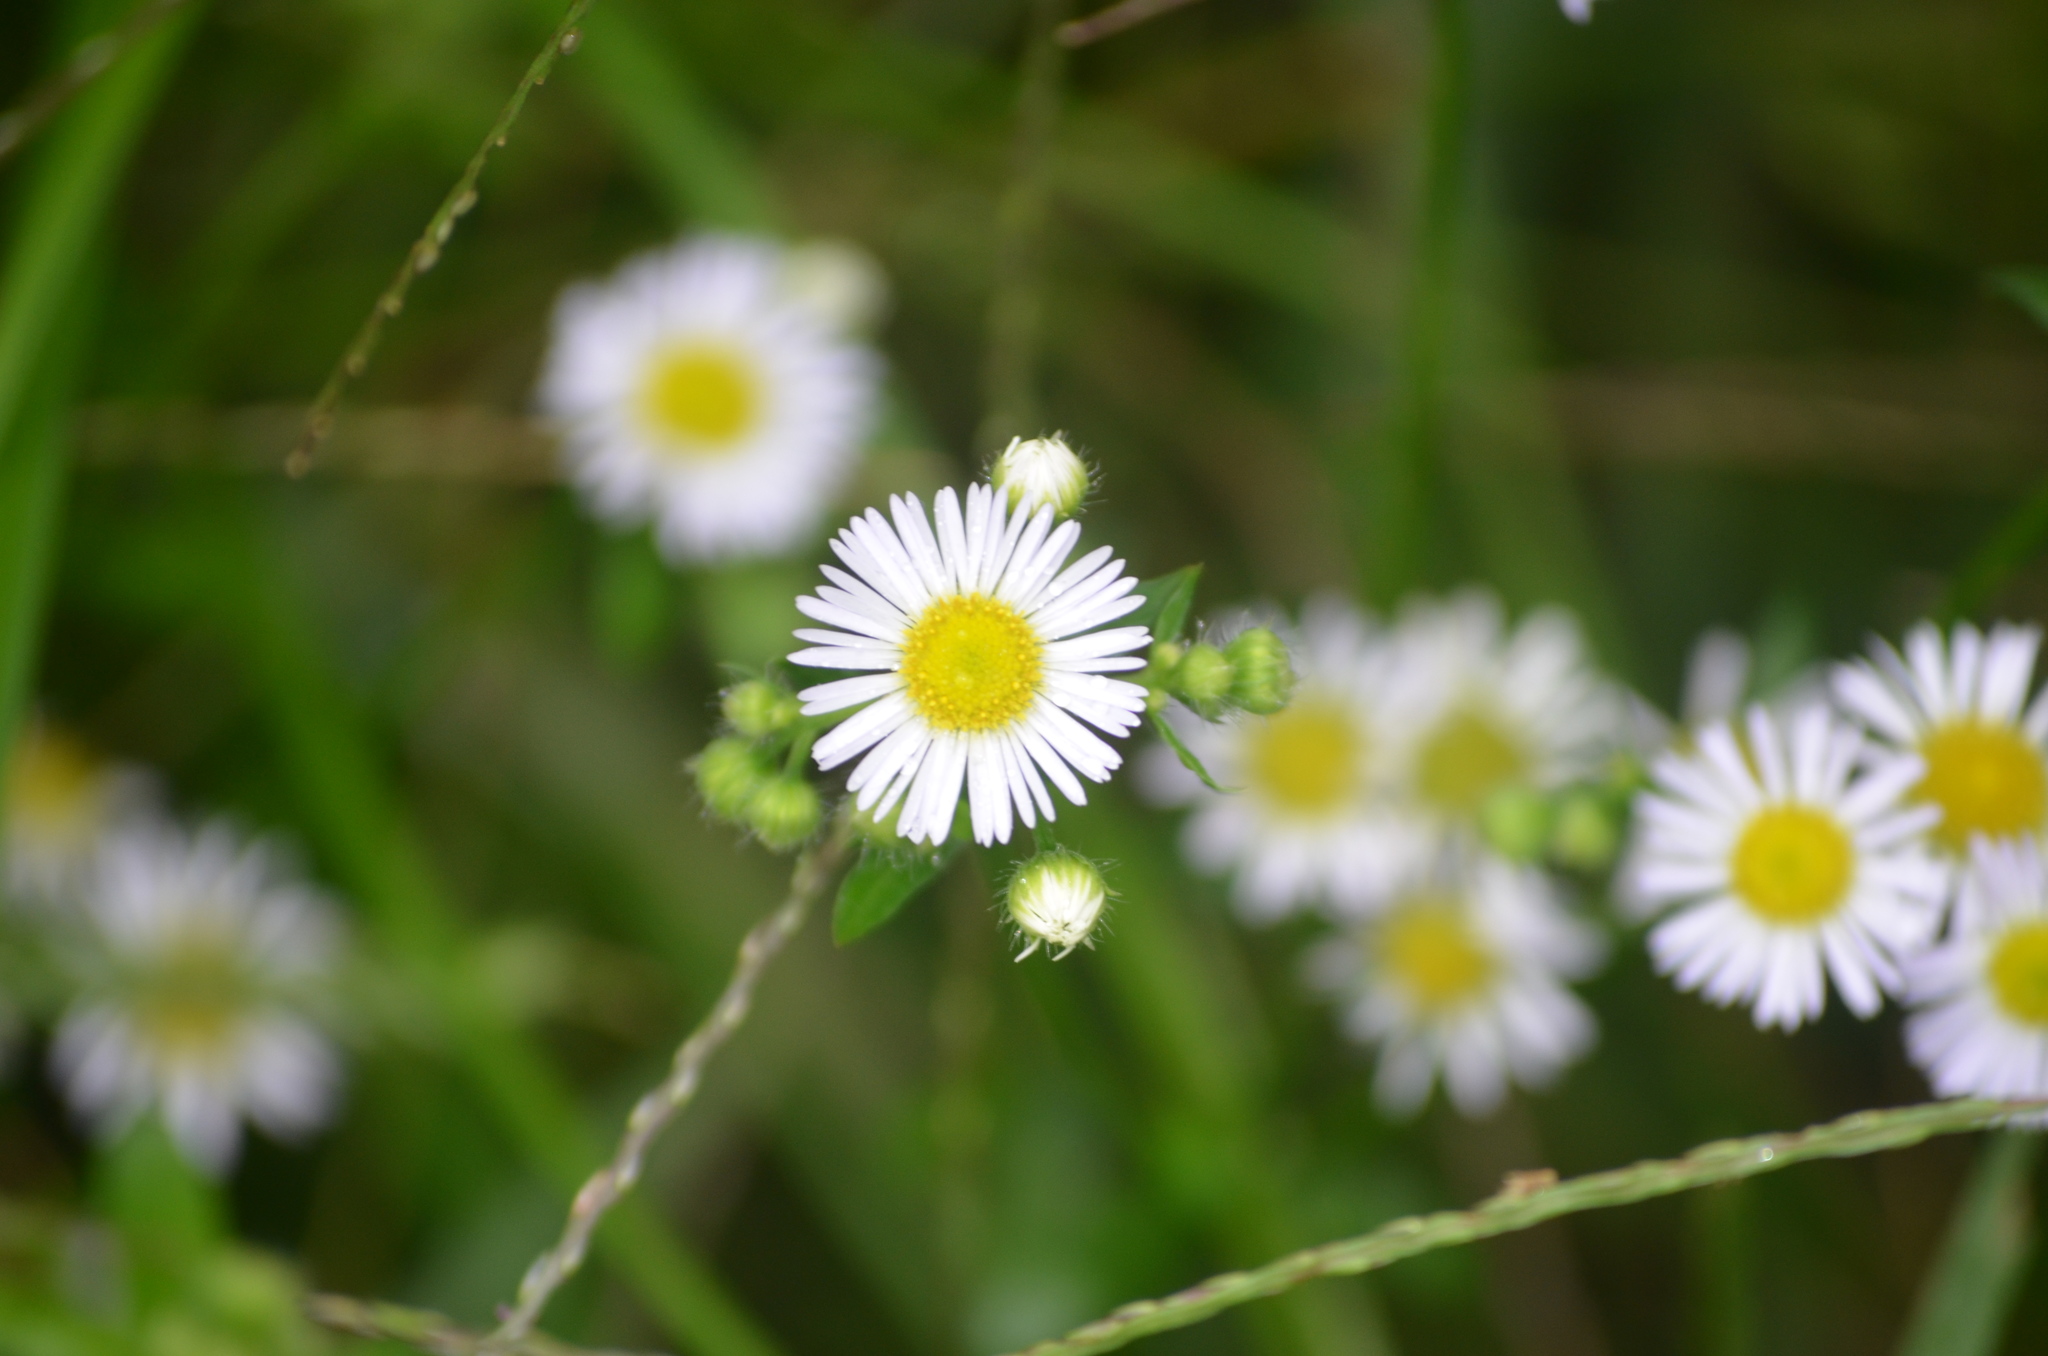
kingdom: Plantae
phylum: Tracheophyta
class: Magnoliopsida
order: Asterales
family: Asteraceae
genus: Erigeron
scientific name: Erigeron annuus
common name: Tall fleabane
